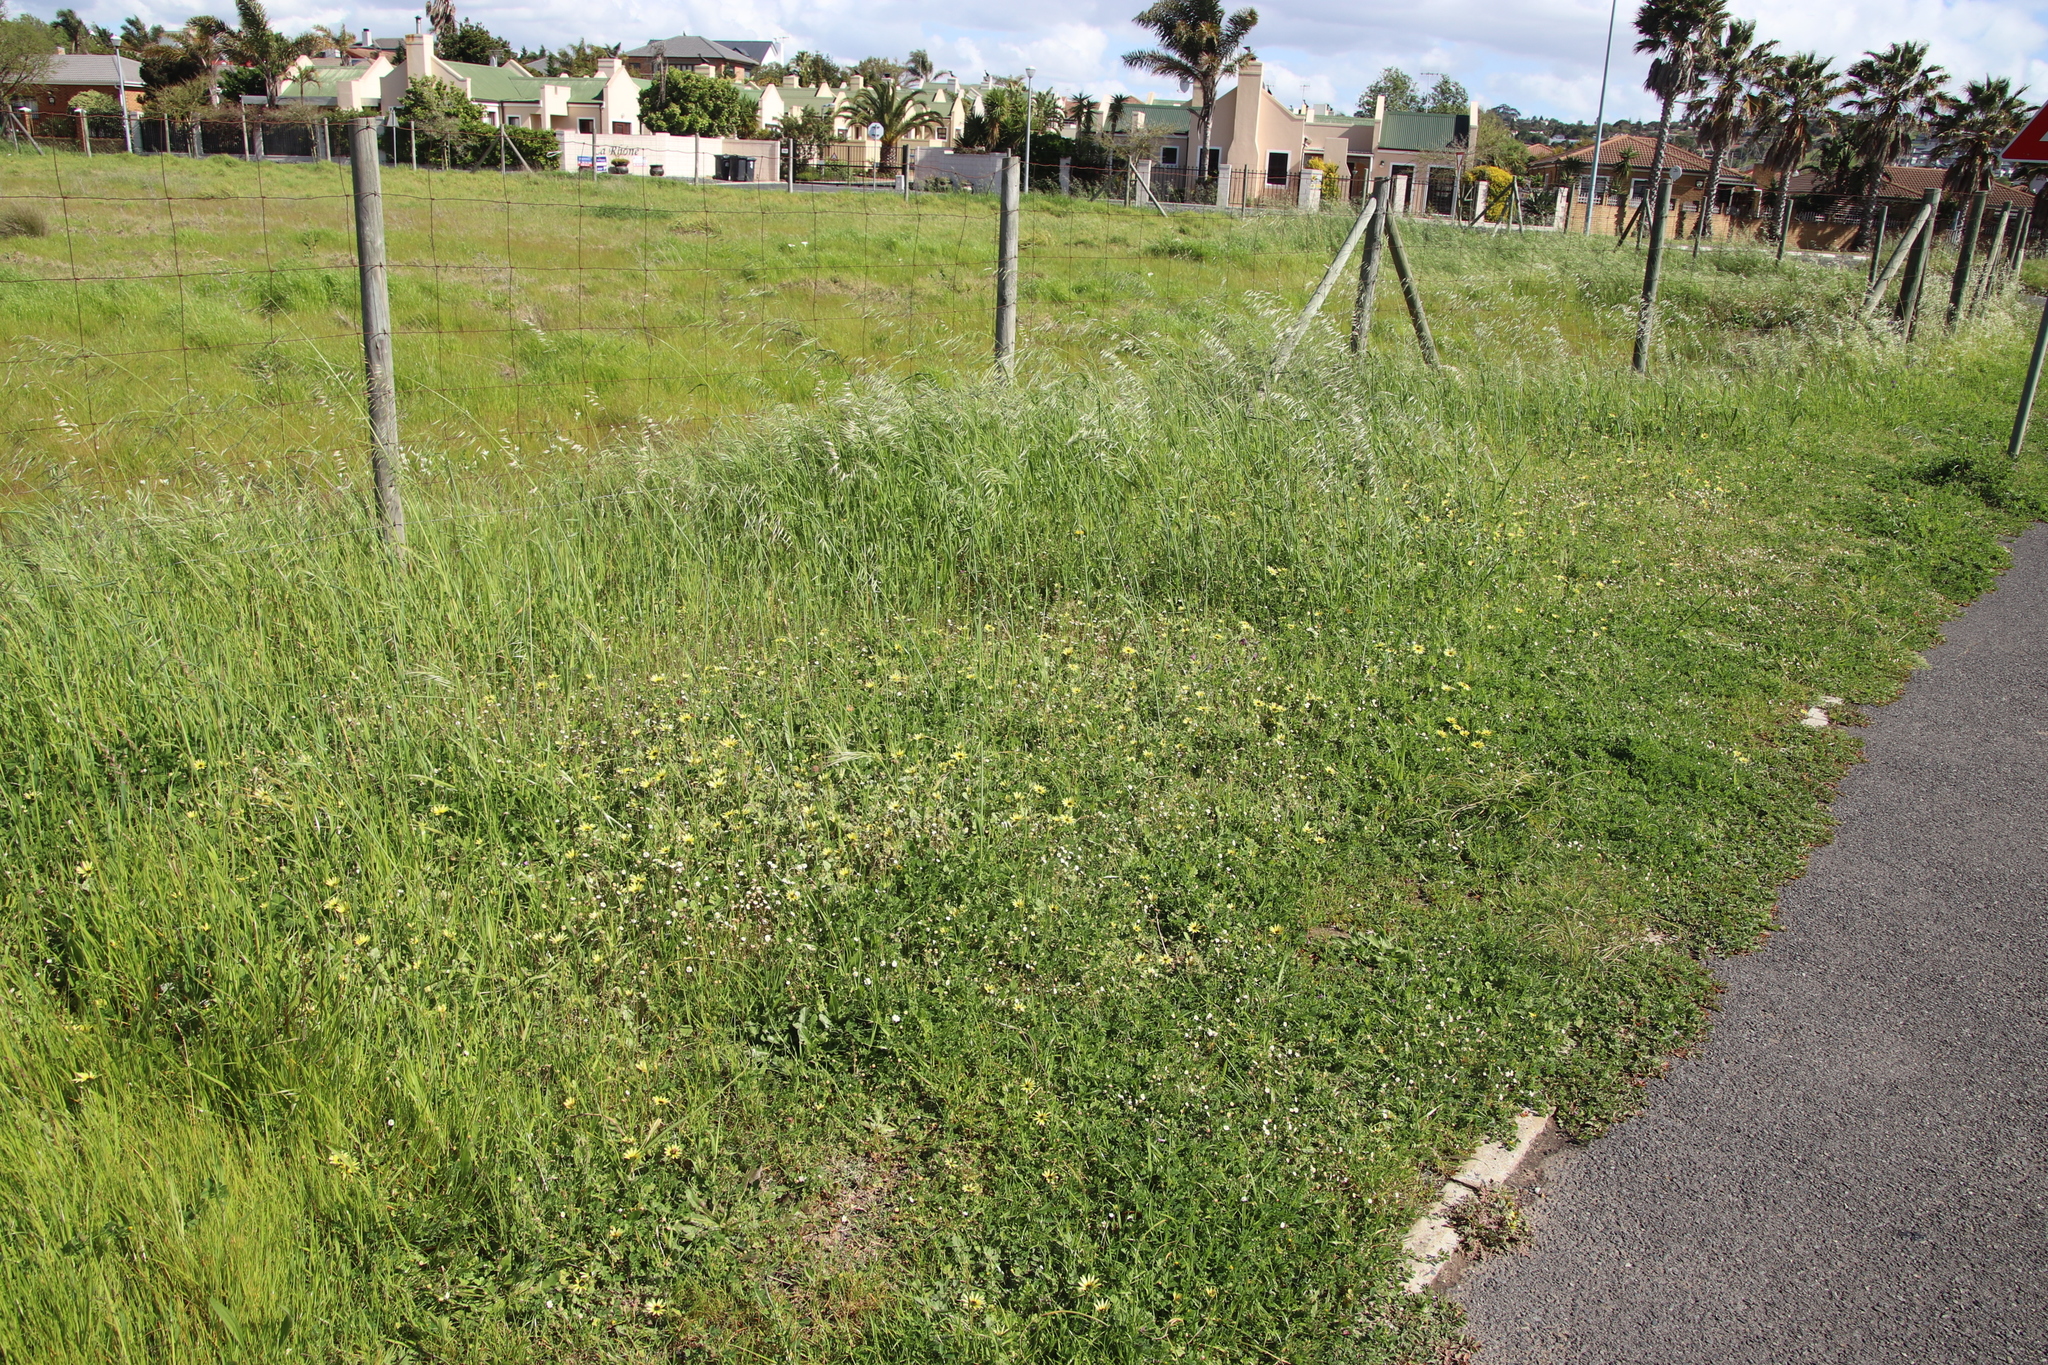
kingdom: Plantae
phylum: Tracheophyta
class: Magnoliopsida
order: Asterales
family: Asteraceae
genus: Arctotheca
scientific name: Arctotheca calendula
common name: Capeweed
